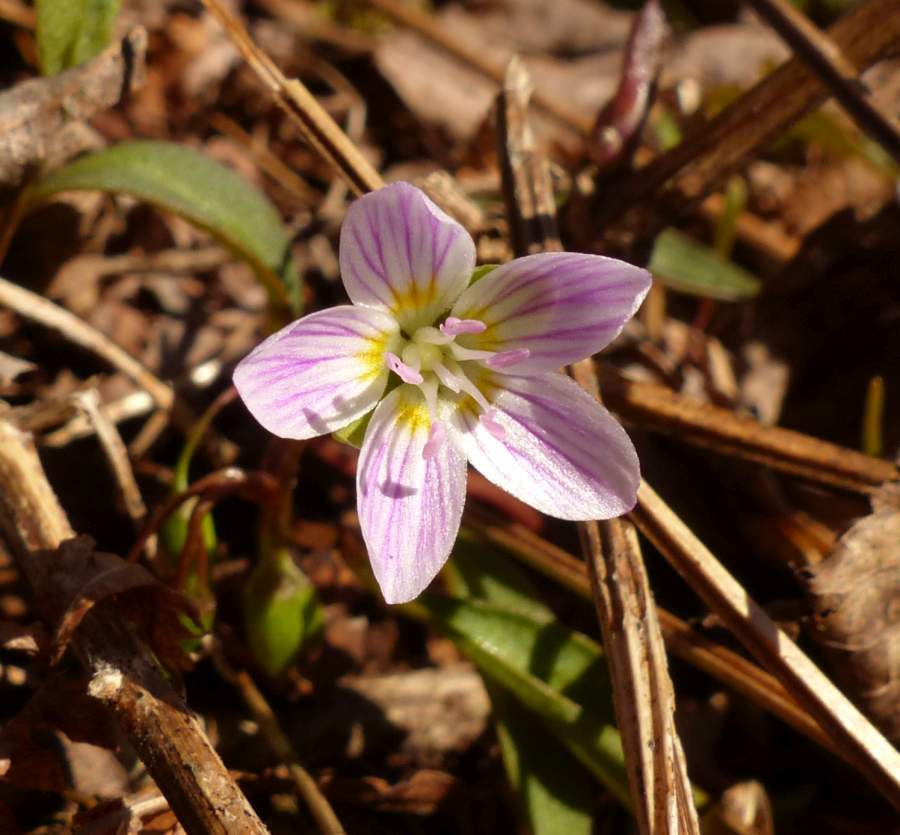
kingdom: Plantae
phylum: Tracheophyta
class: Magnoliopsida
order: Caryophyllales
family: Montiaceae
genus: Claytonia
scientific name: Claytonia caroliniana
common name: Carolina spring beauty
